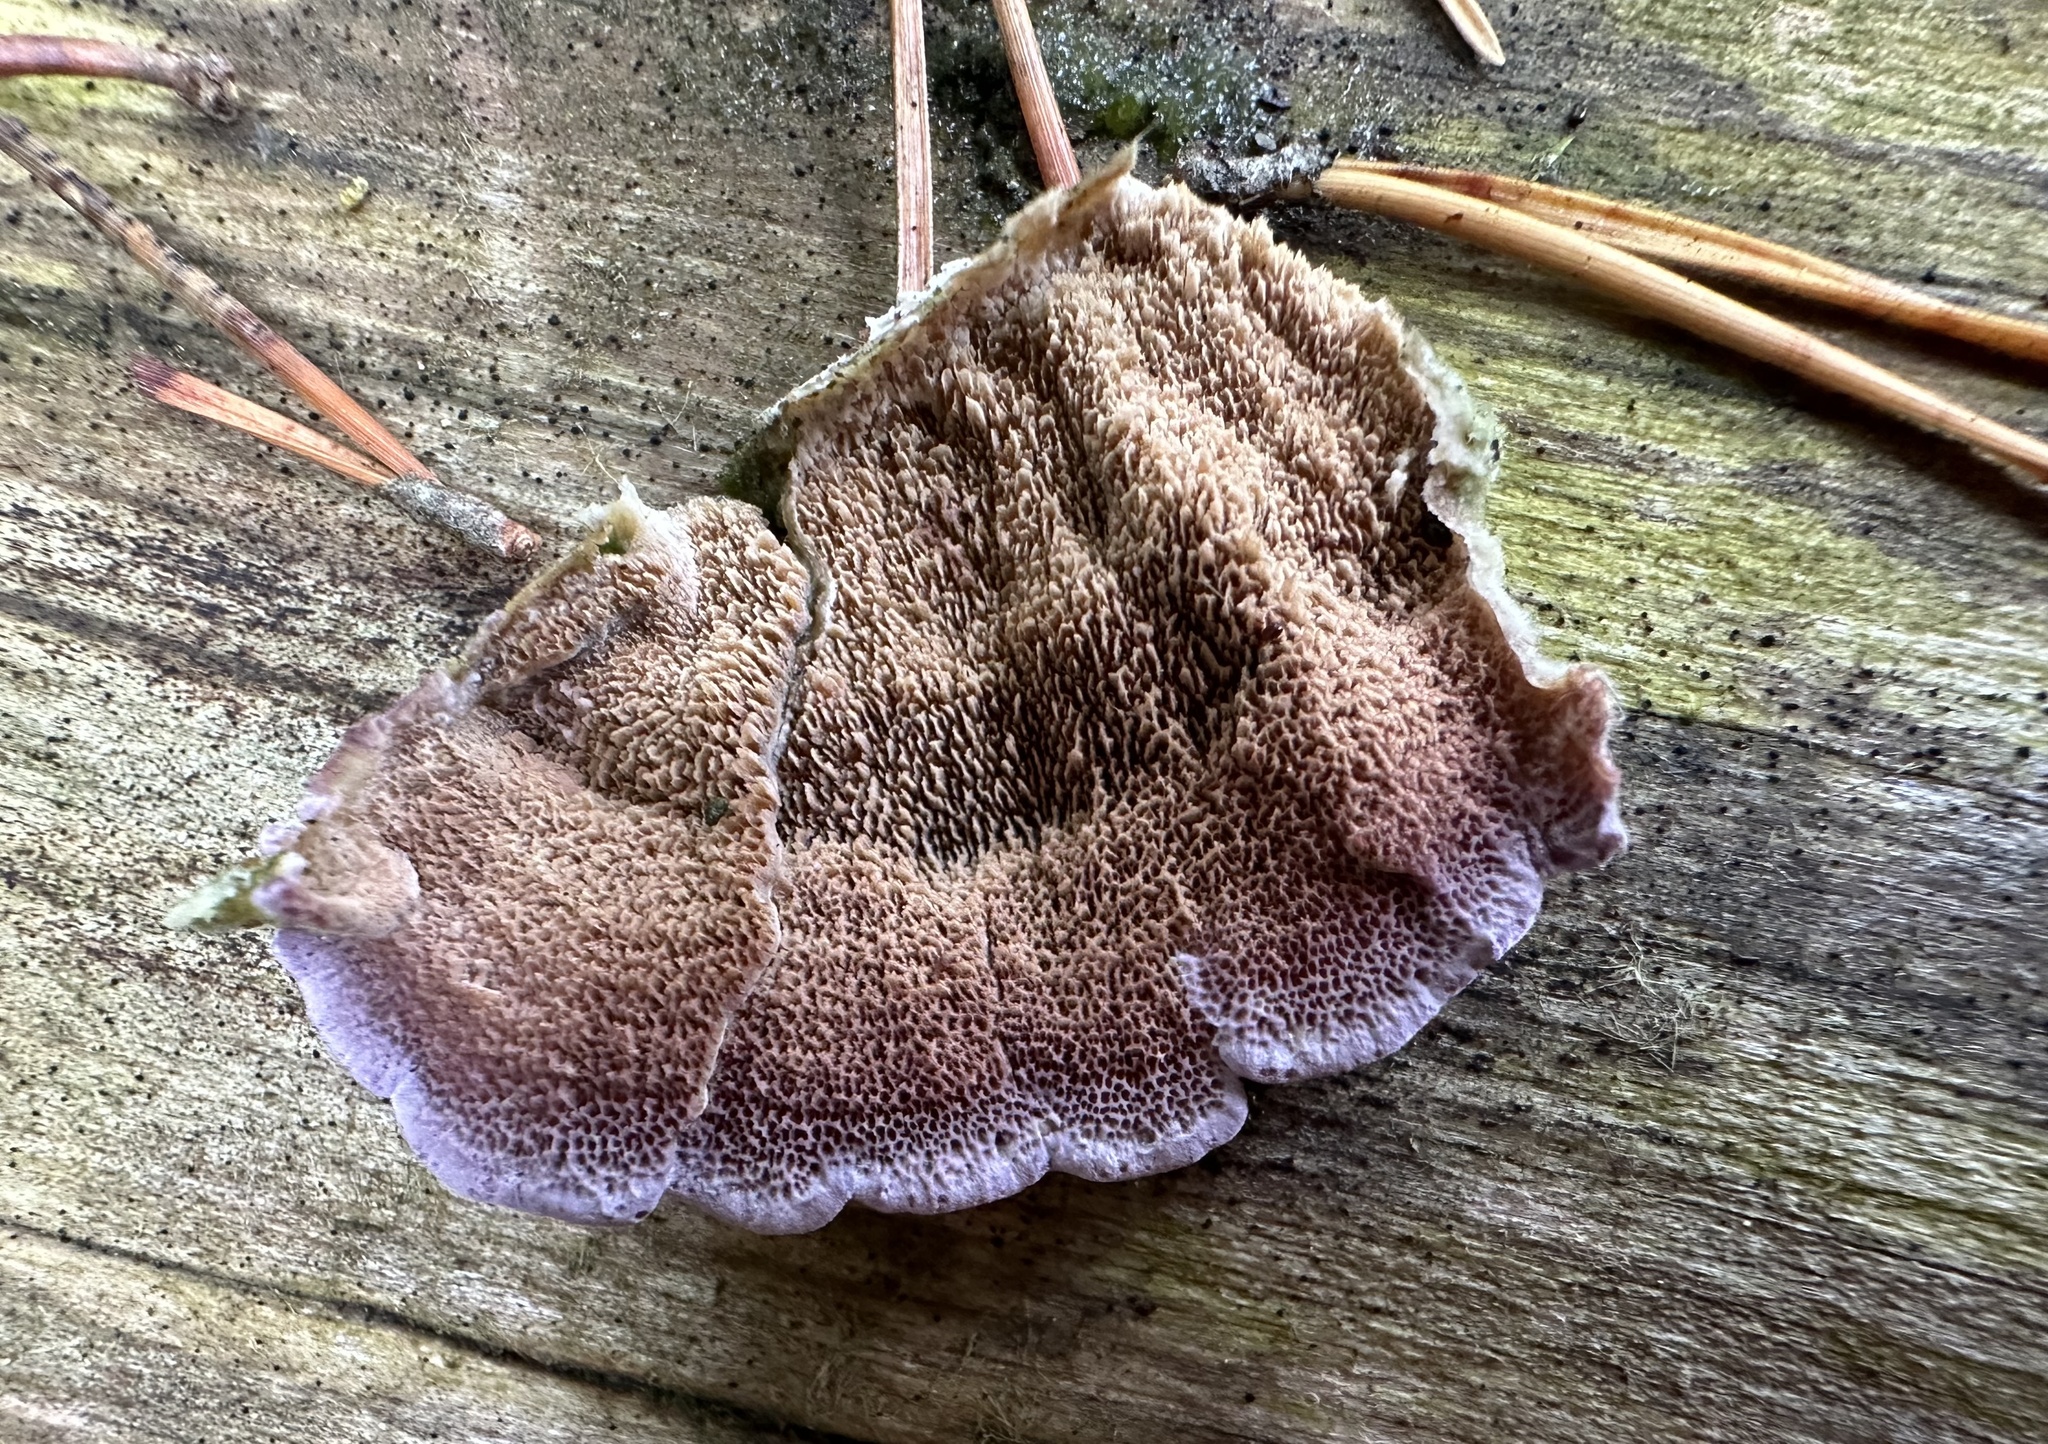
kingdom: Fungi
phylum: Basidiomycota
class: Agaricomycetes
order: Hymenochaetales
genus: Trichaptum
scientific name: Trichaptum abietinum
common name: Purplepore bracket
